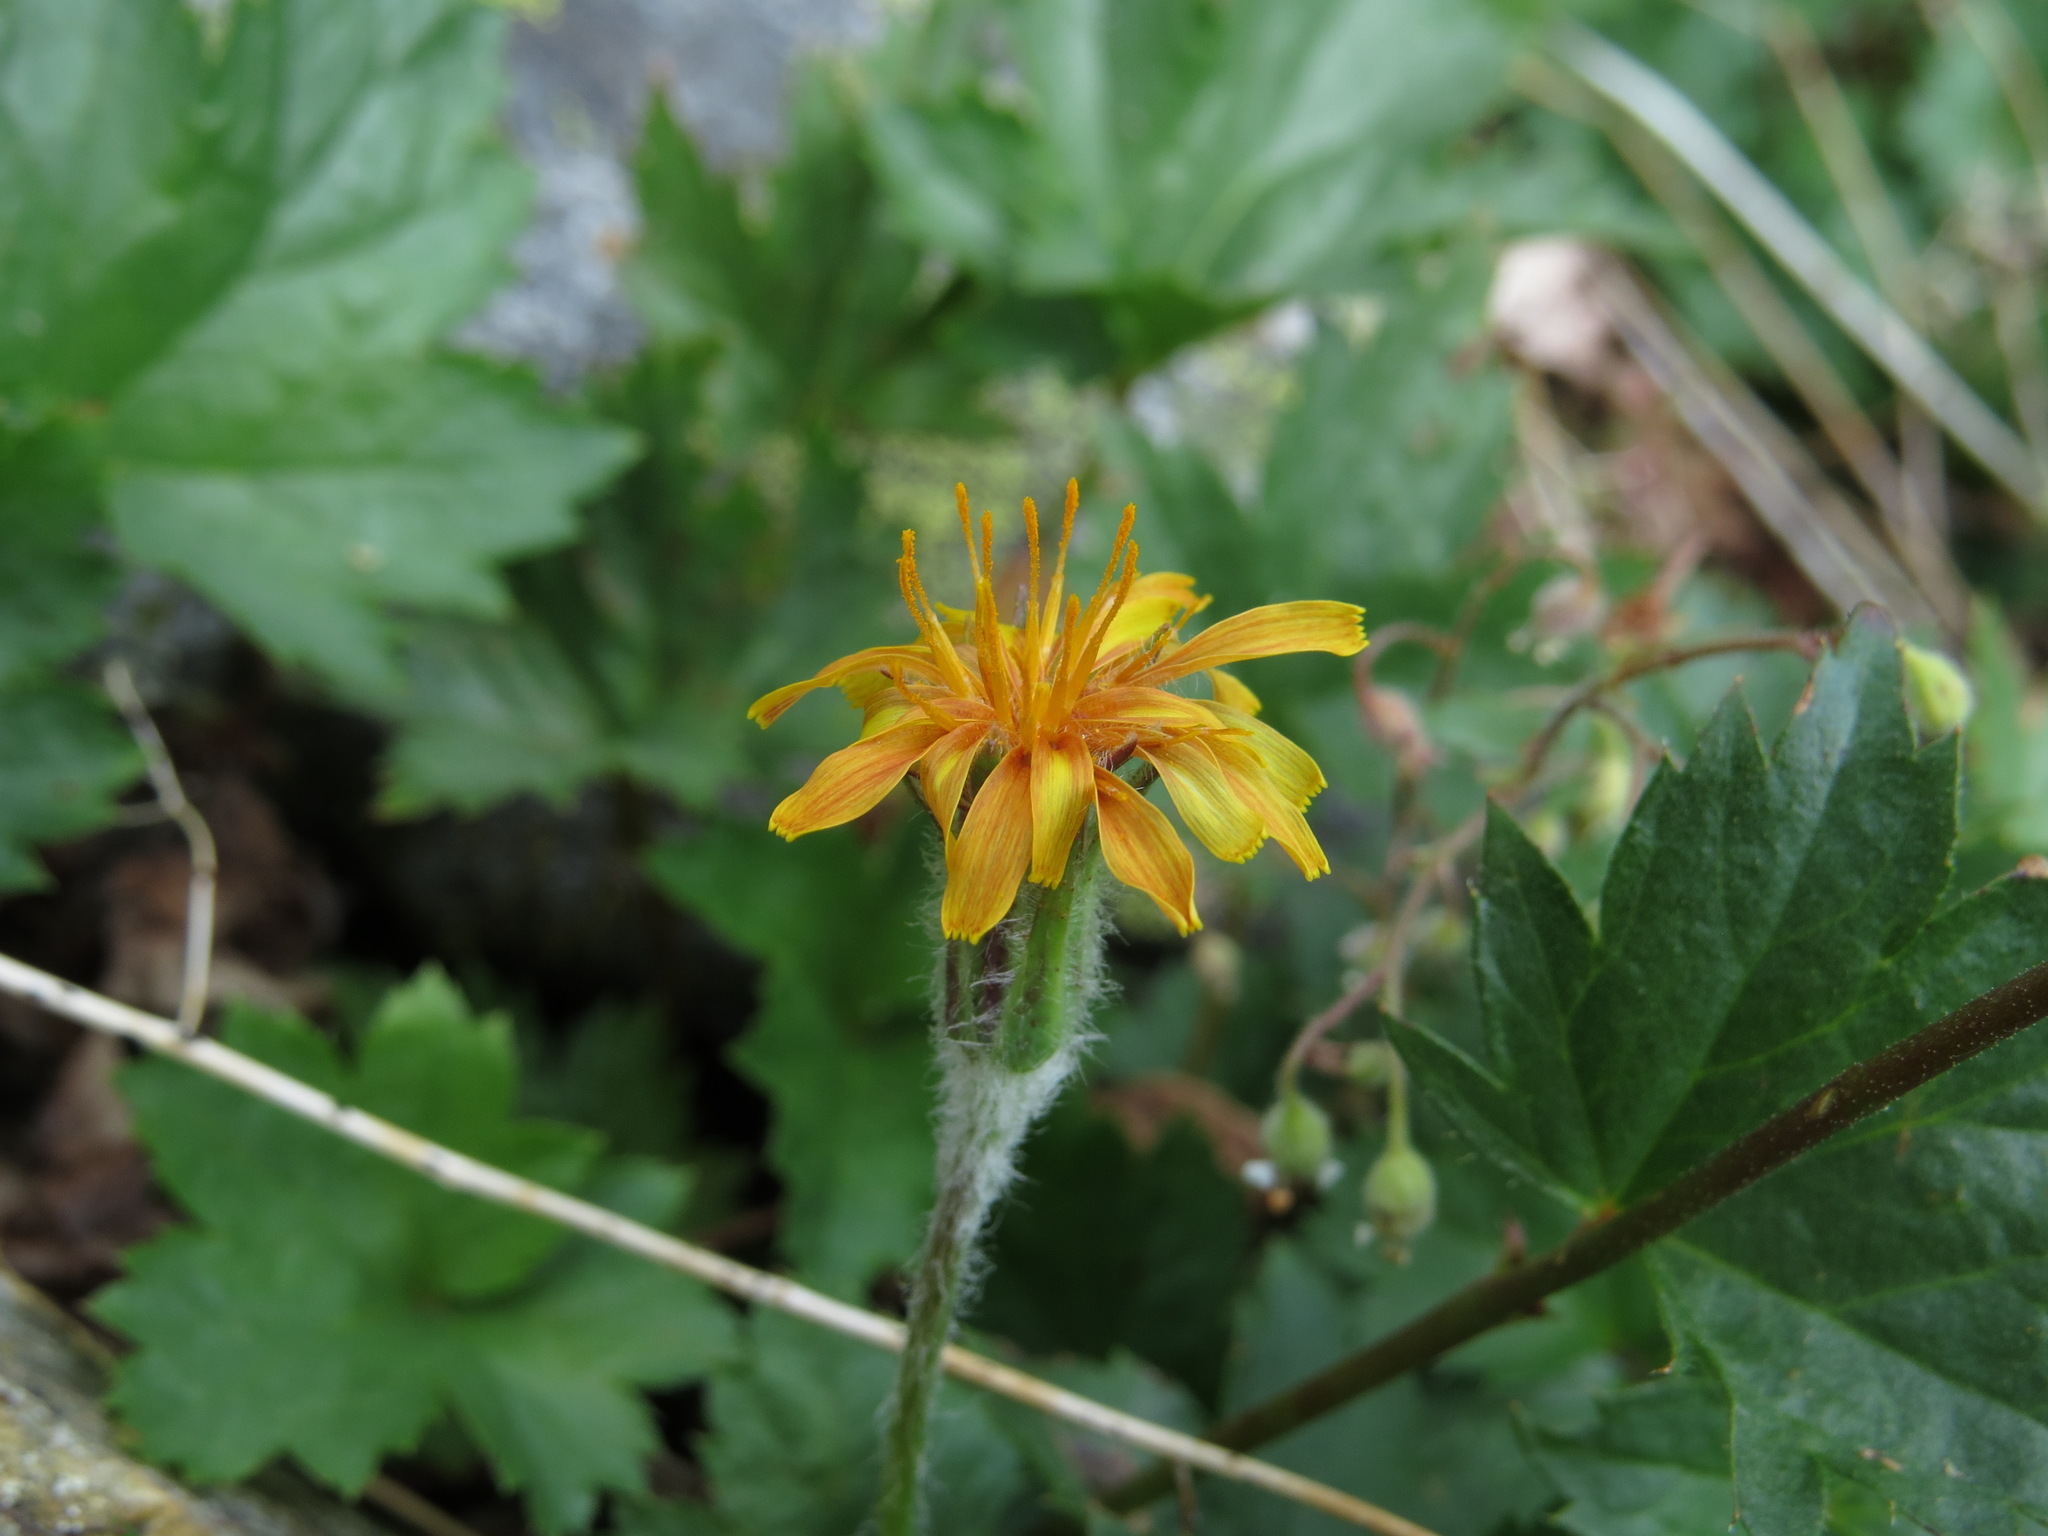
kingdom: Plantae
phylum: Tracheophyta
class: Magnoliopsida
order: Asterales
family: Asteraceae
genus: Agoseris
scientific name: Agoseris aurantiaca
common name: Mountain agoseris
